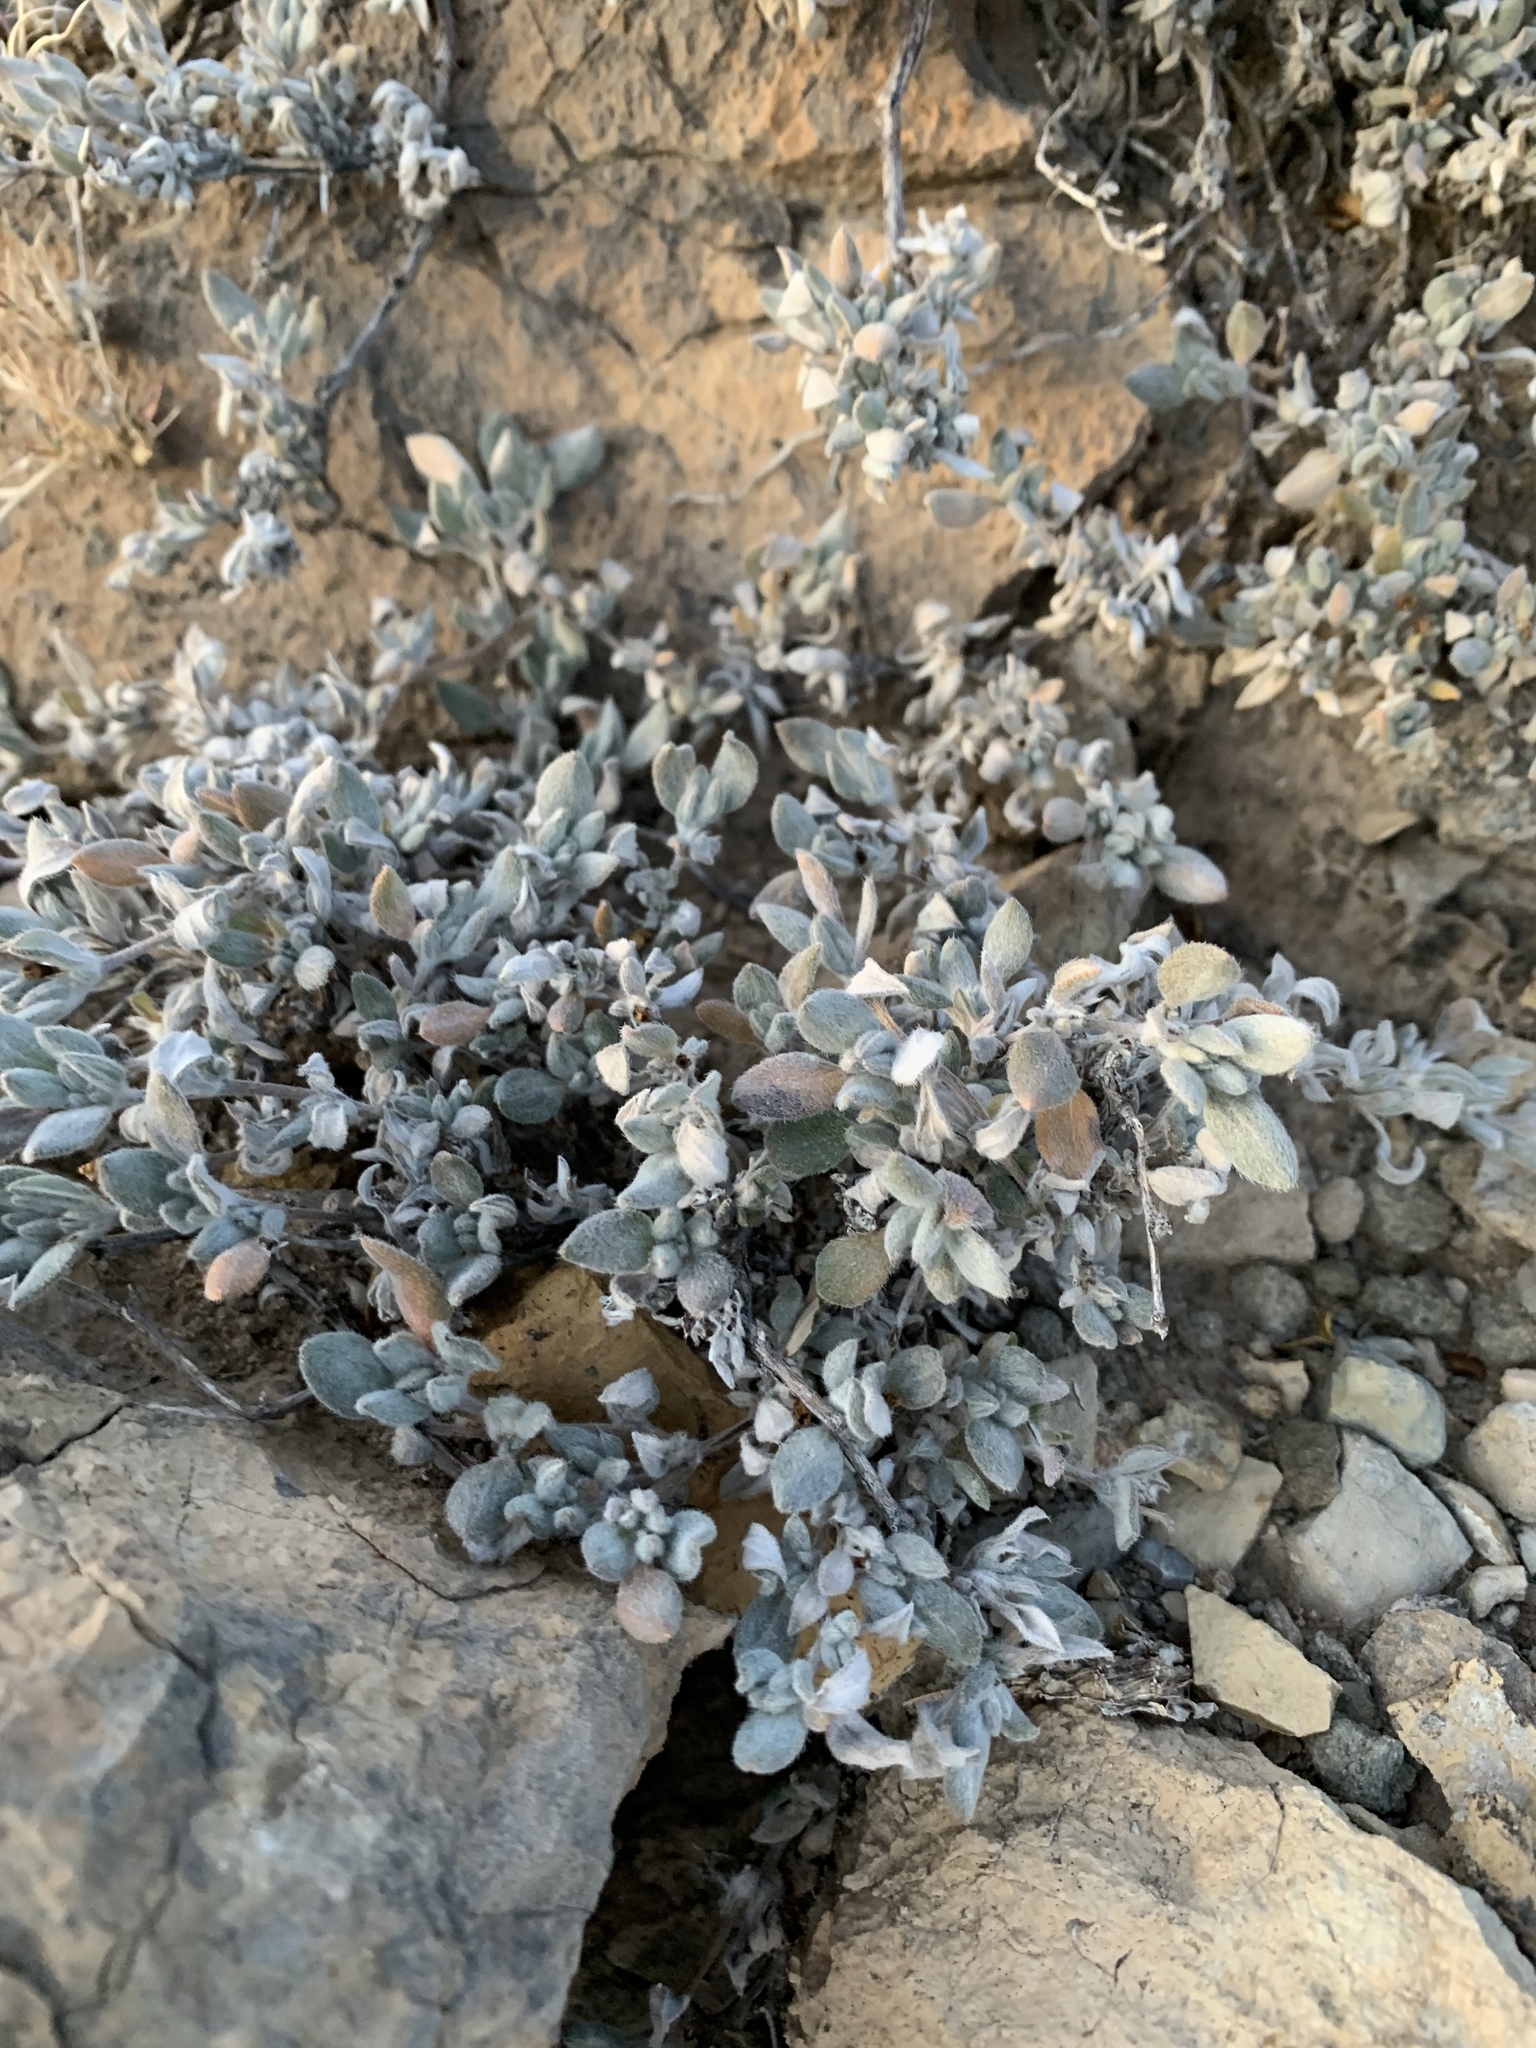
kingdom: Plantae
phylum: Tracheophyta
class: Magnoliopsida
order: Boraginales
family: Ehretiaceae
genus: Tiquilia
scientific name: Tiquilia canescens
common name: Hairy tiquilia
